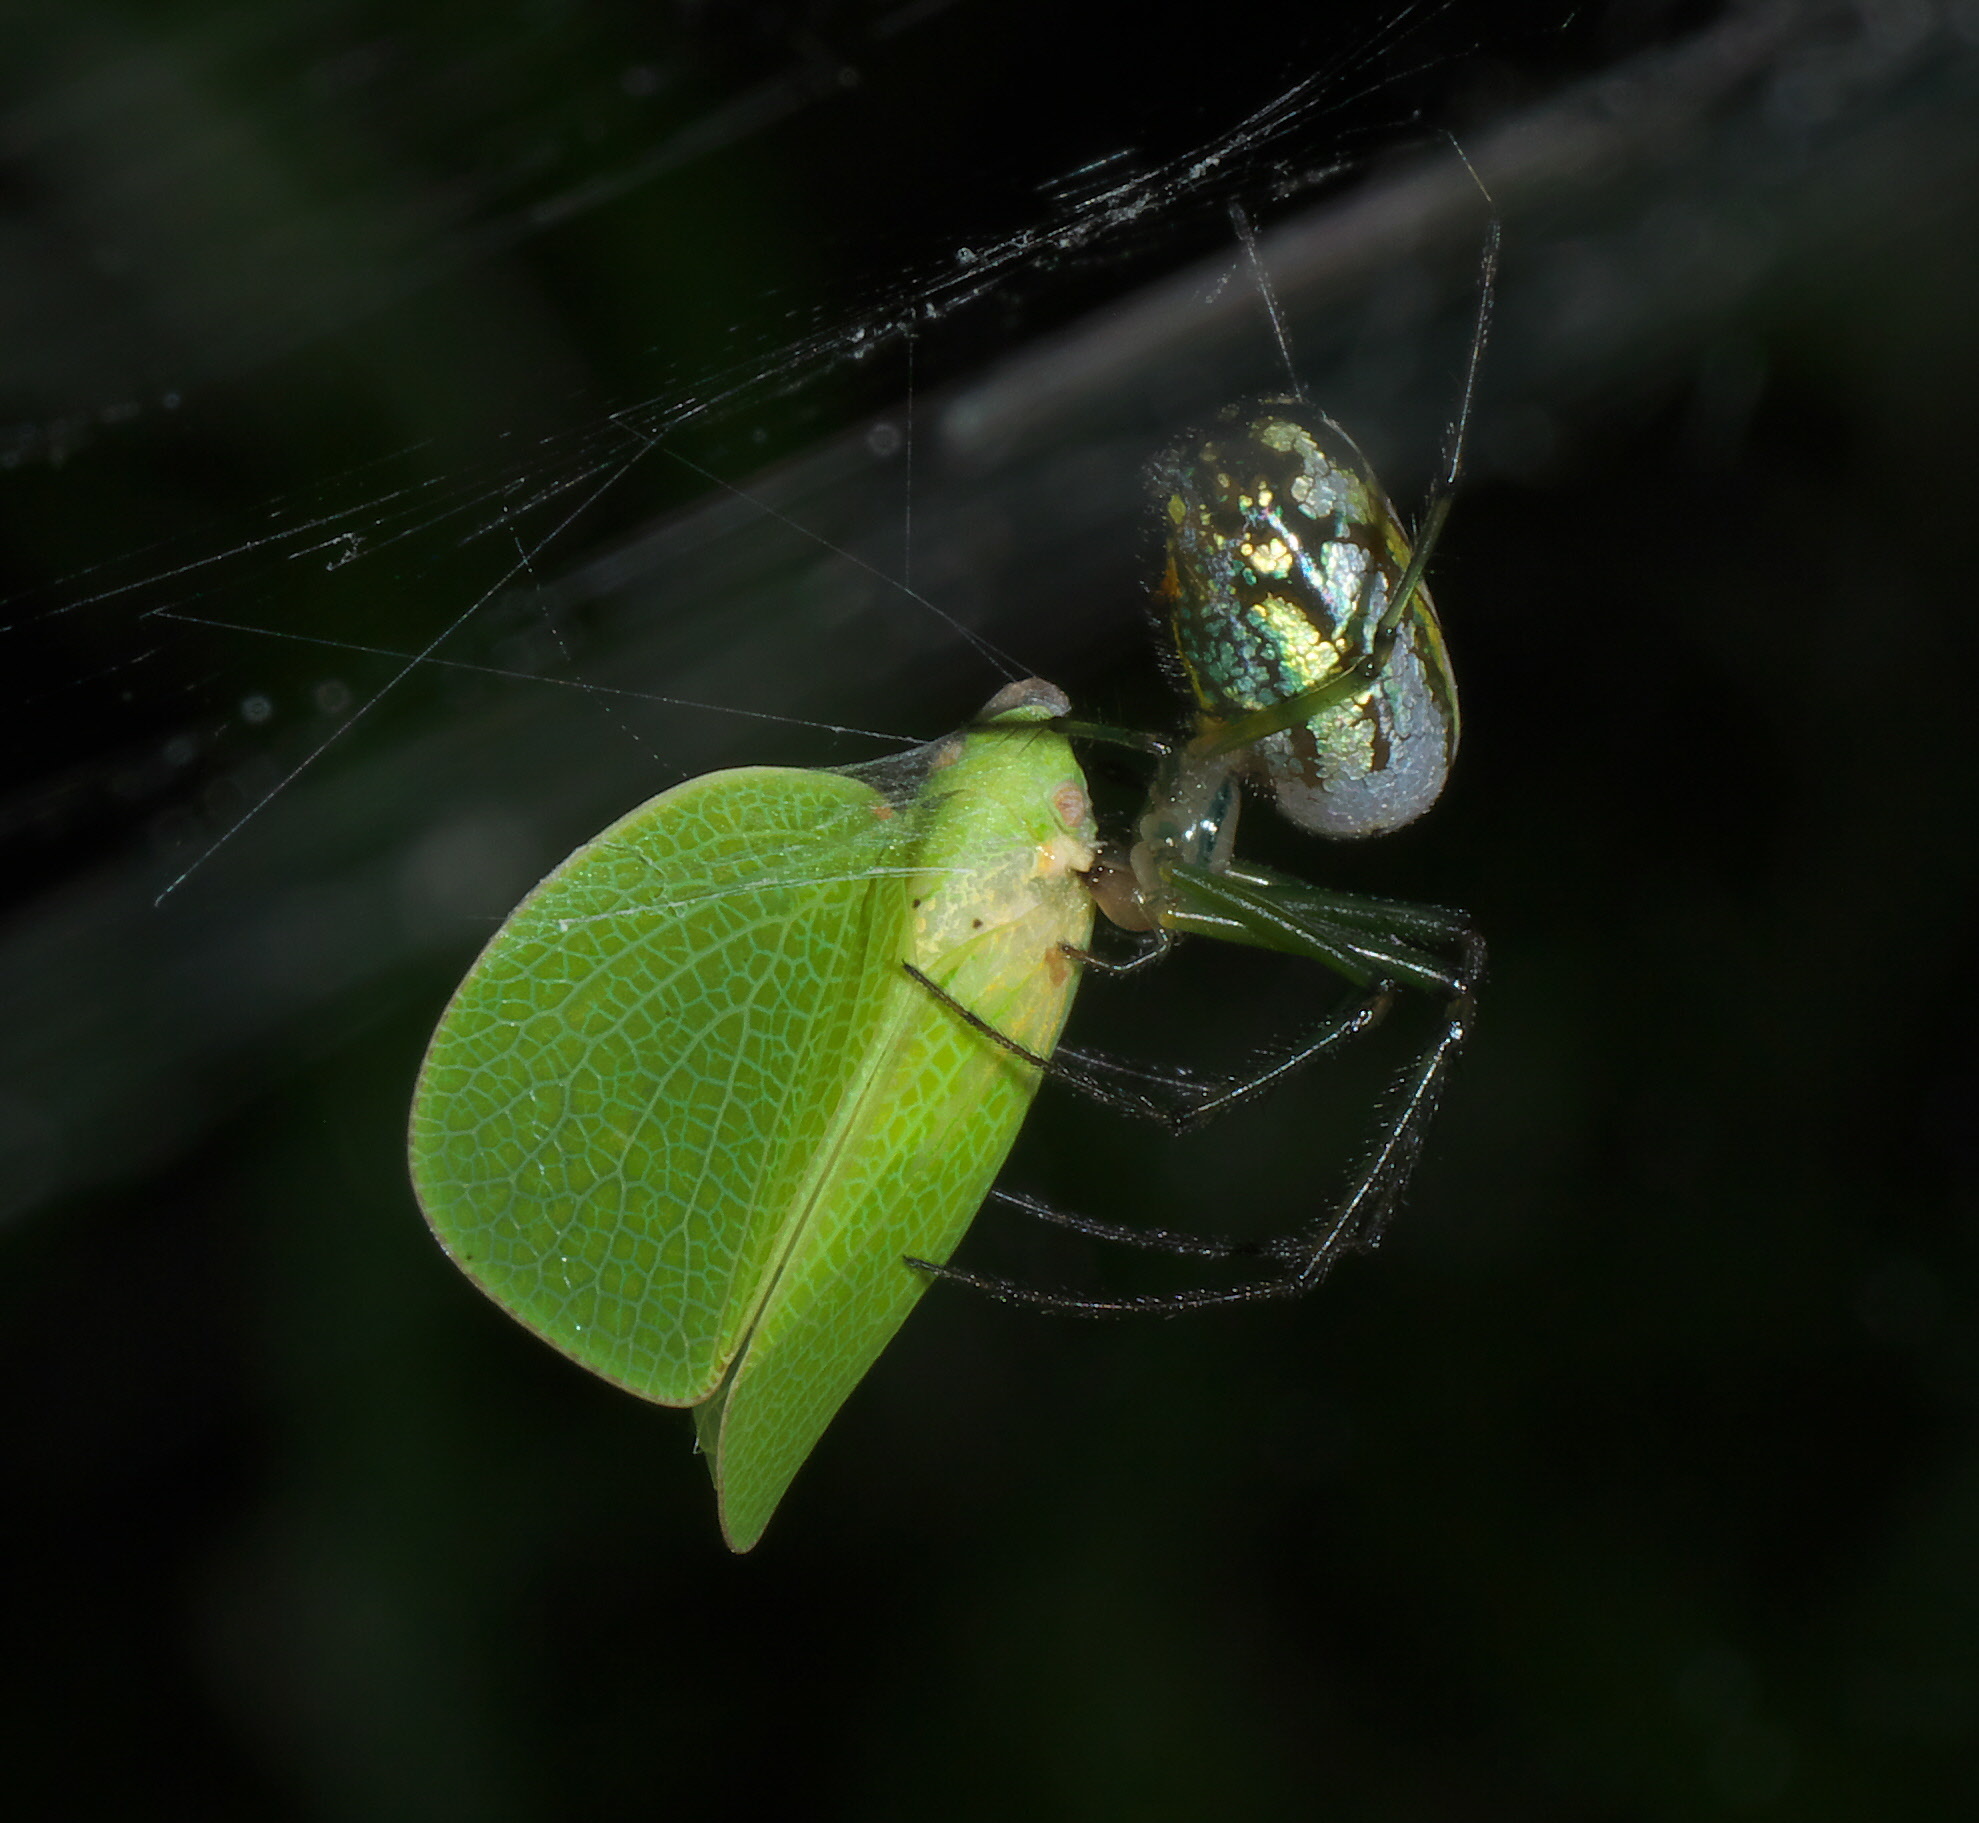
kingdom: Animalia
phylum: Arthropoda
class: Arachnida
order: Araneae
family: Tetragnathidae
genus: Leucauge
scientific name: Leucauge venusta
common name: Longjawed orb weavers
